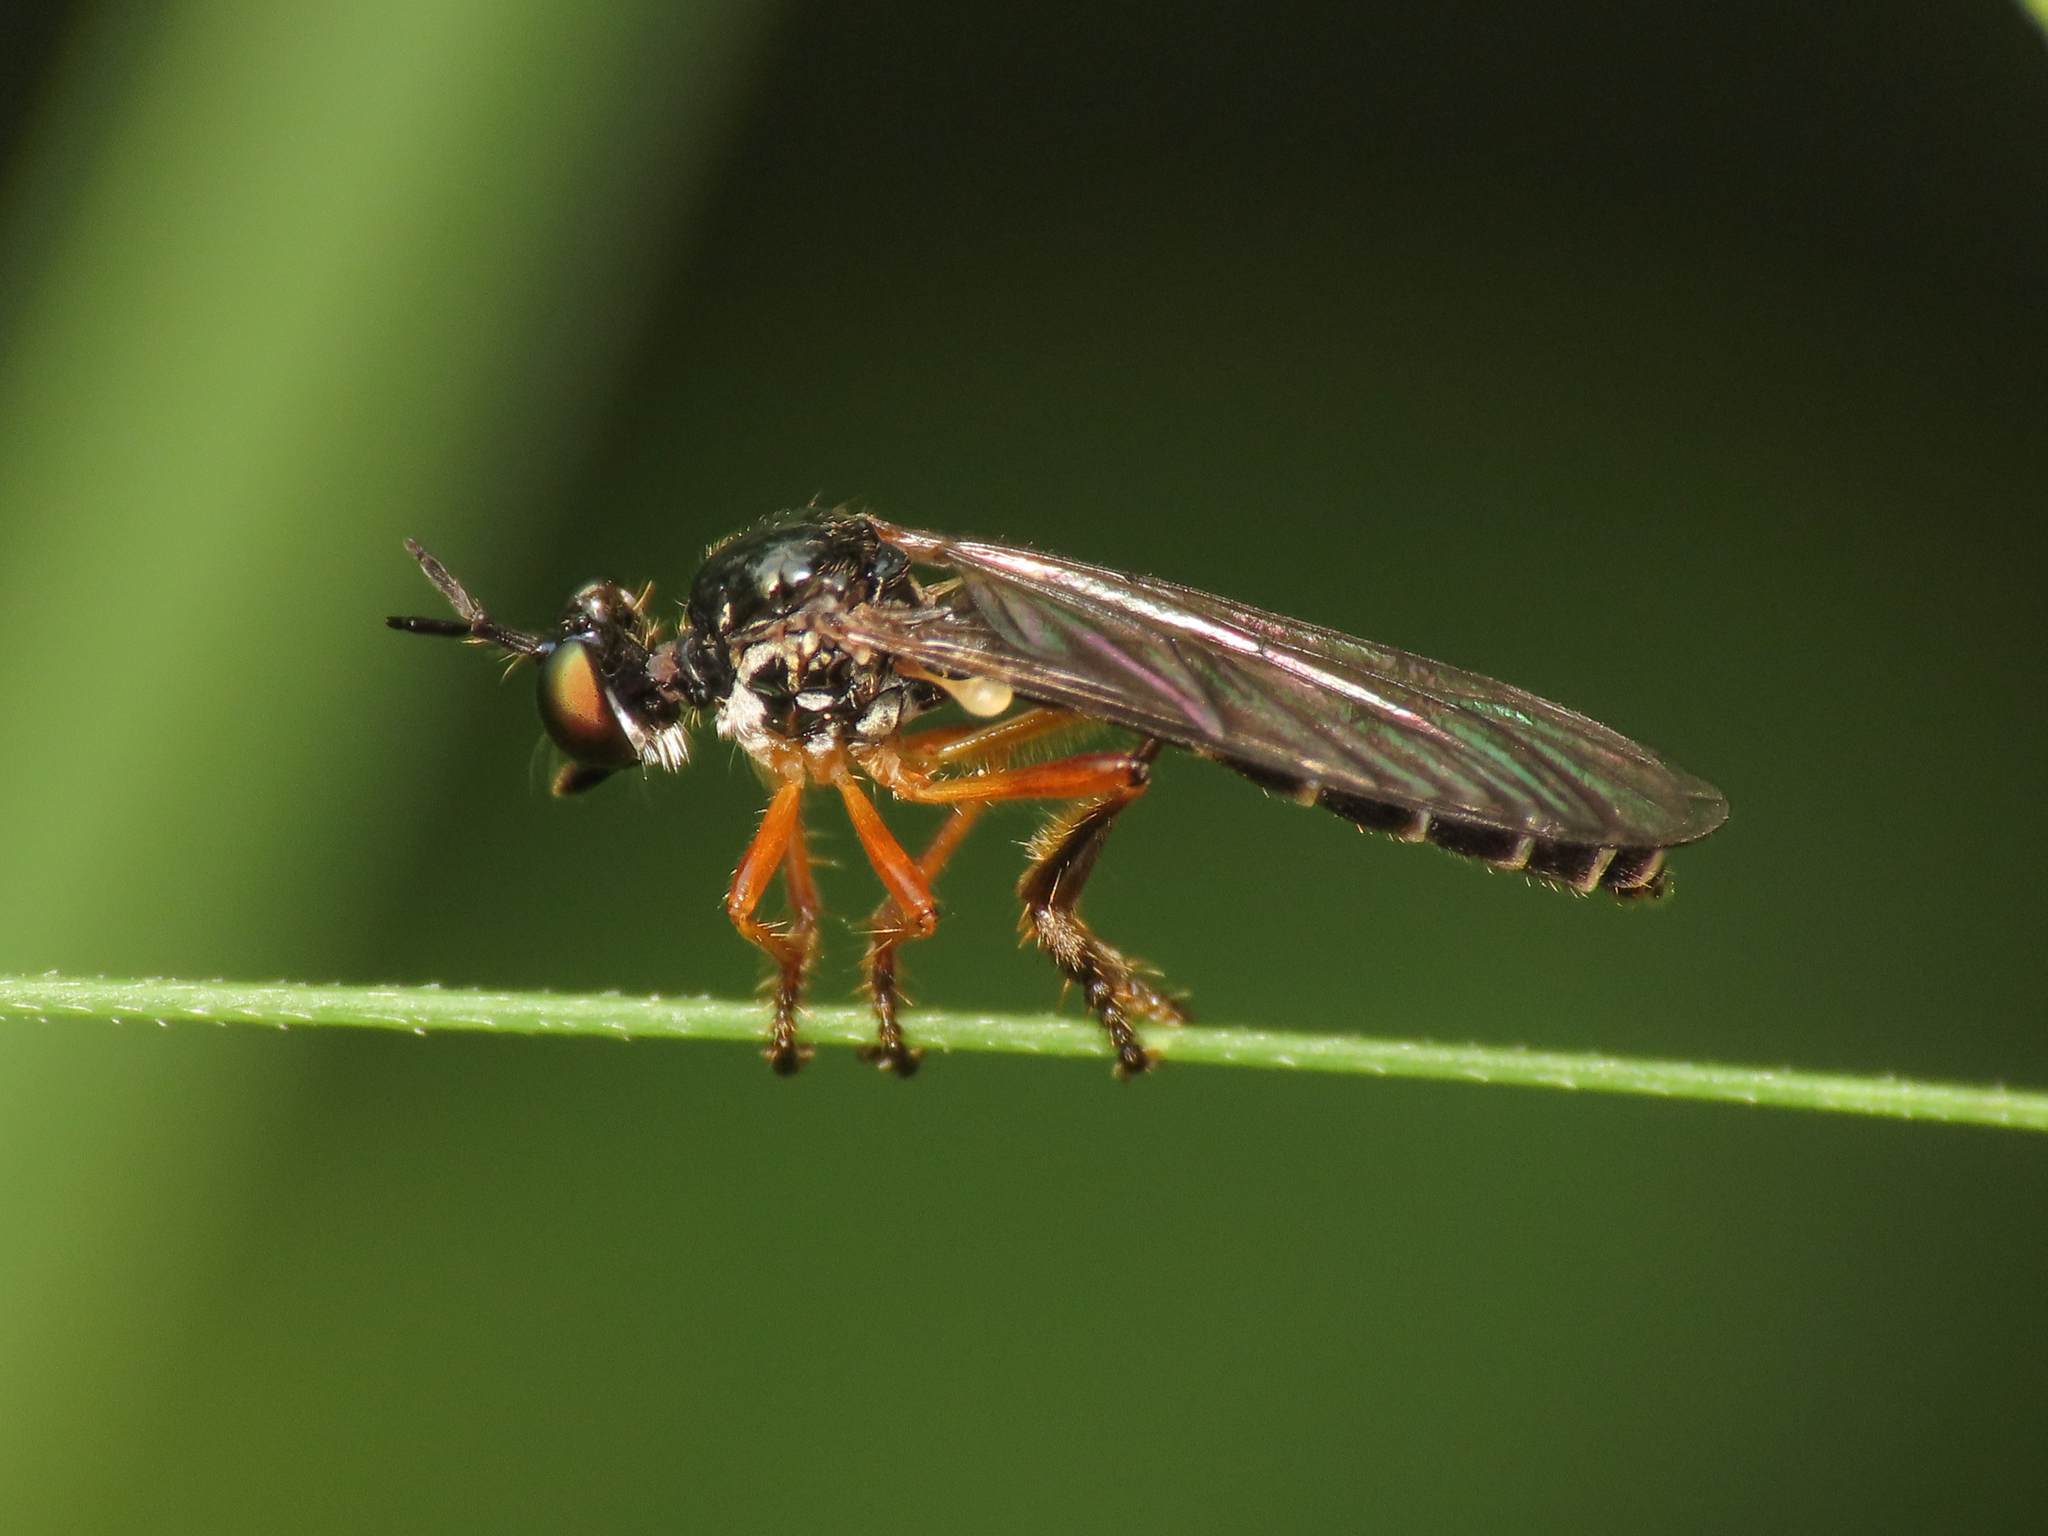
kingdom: Animalia
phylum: Arthropoda
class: Insecta
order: Diptera
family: Asilidae
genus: Dioctria
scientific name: Dioctria bicincta
